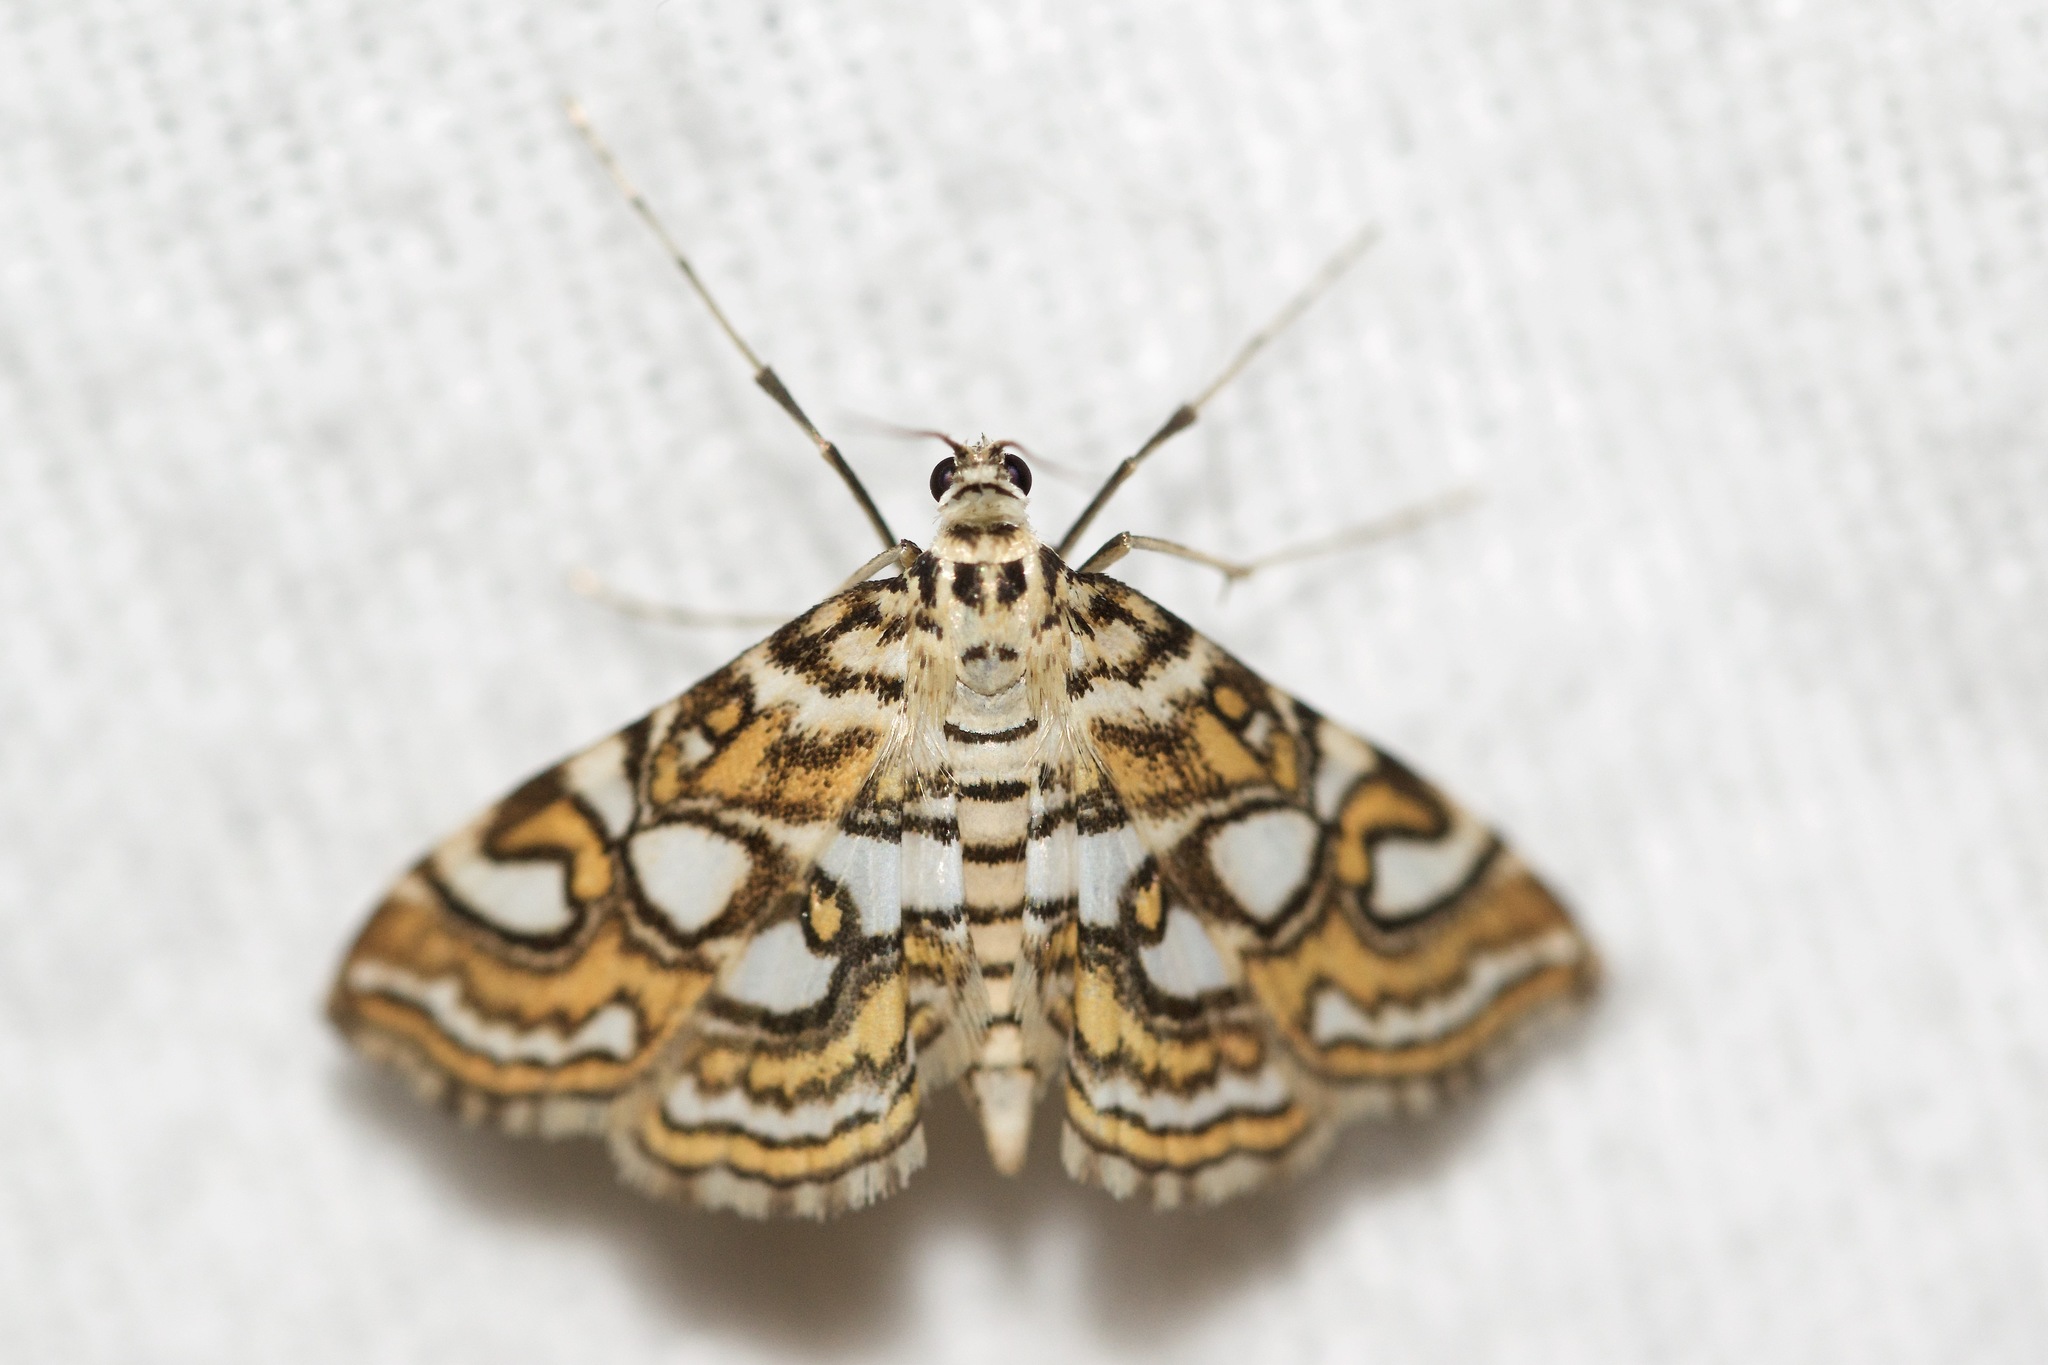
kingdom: Animalia
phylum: Arthropoda
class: Insecta
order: Lepidoptera
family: Crambidae
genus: Elophila
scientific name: Elophila ekthlipsis
